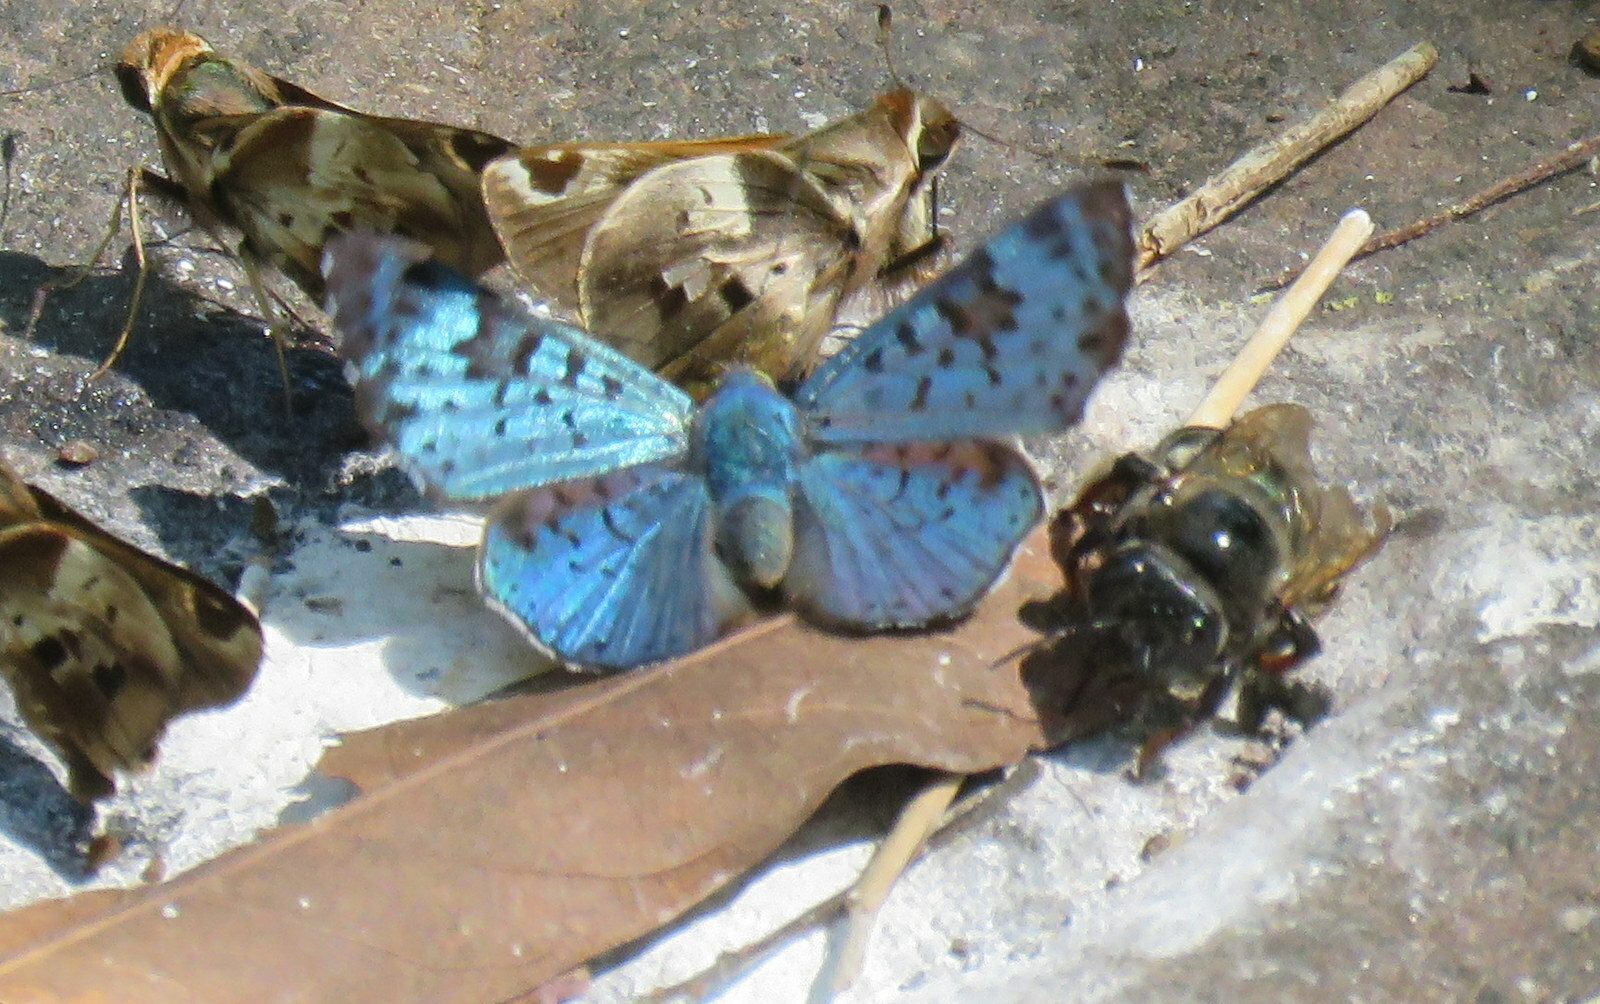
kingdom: Animalia
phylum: Arthropoda
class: Insecta
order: Lepidoptera
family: Riodinidae
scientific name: Riodinidae
